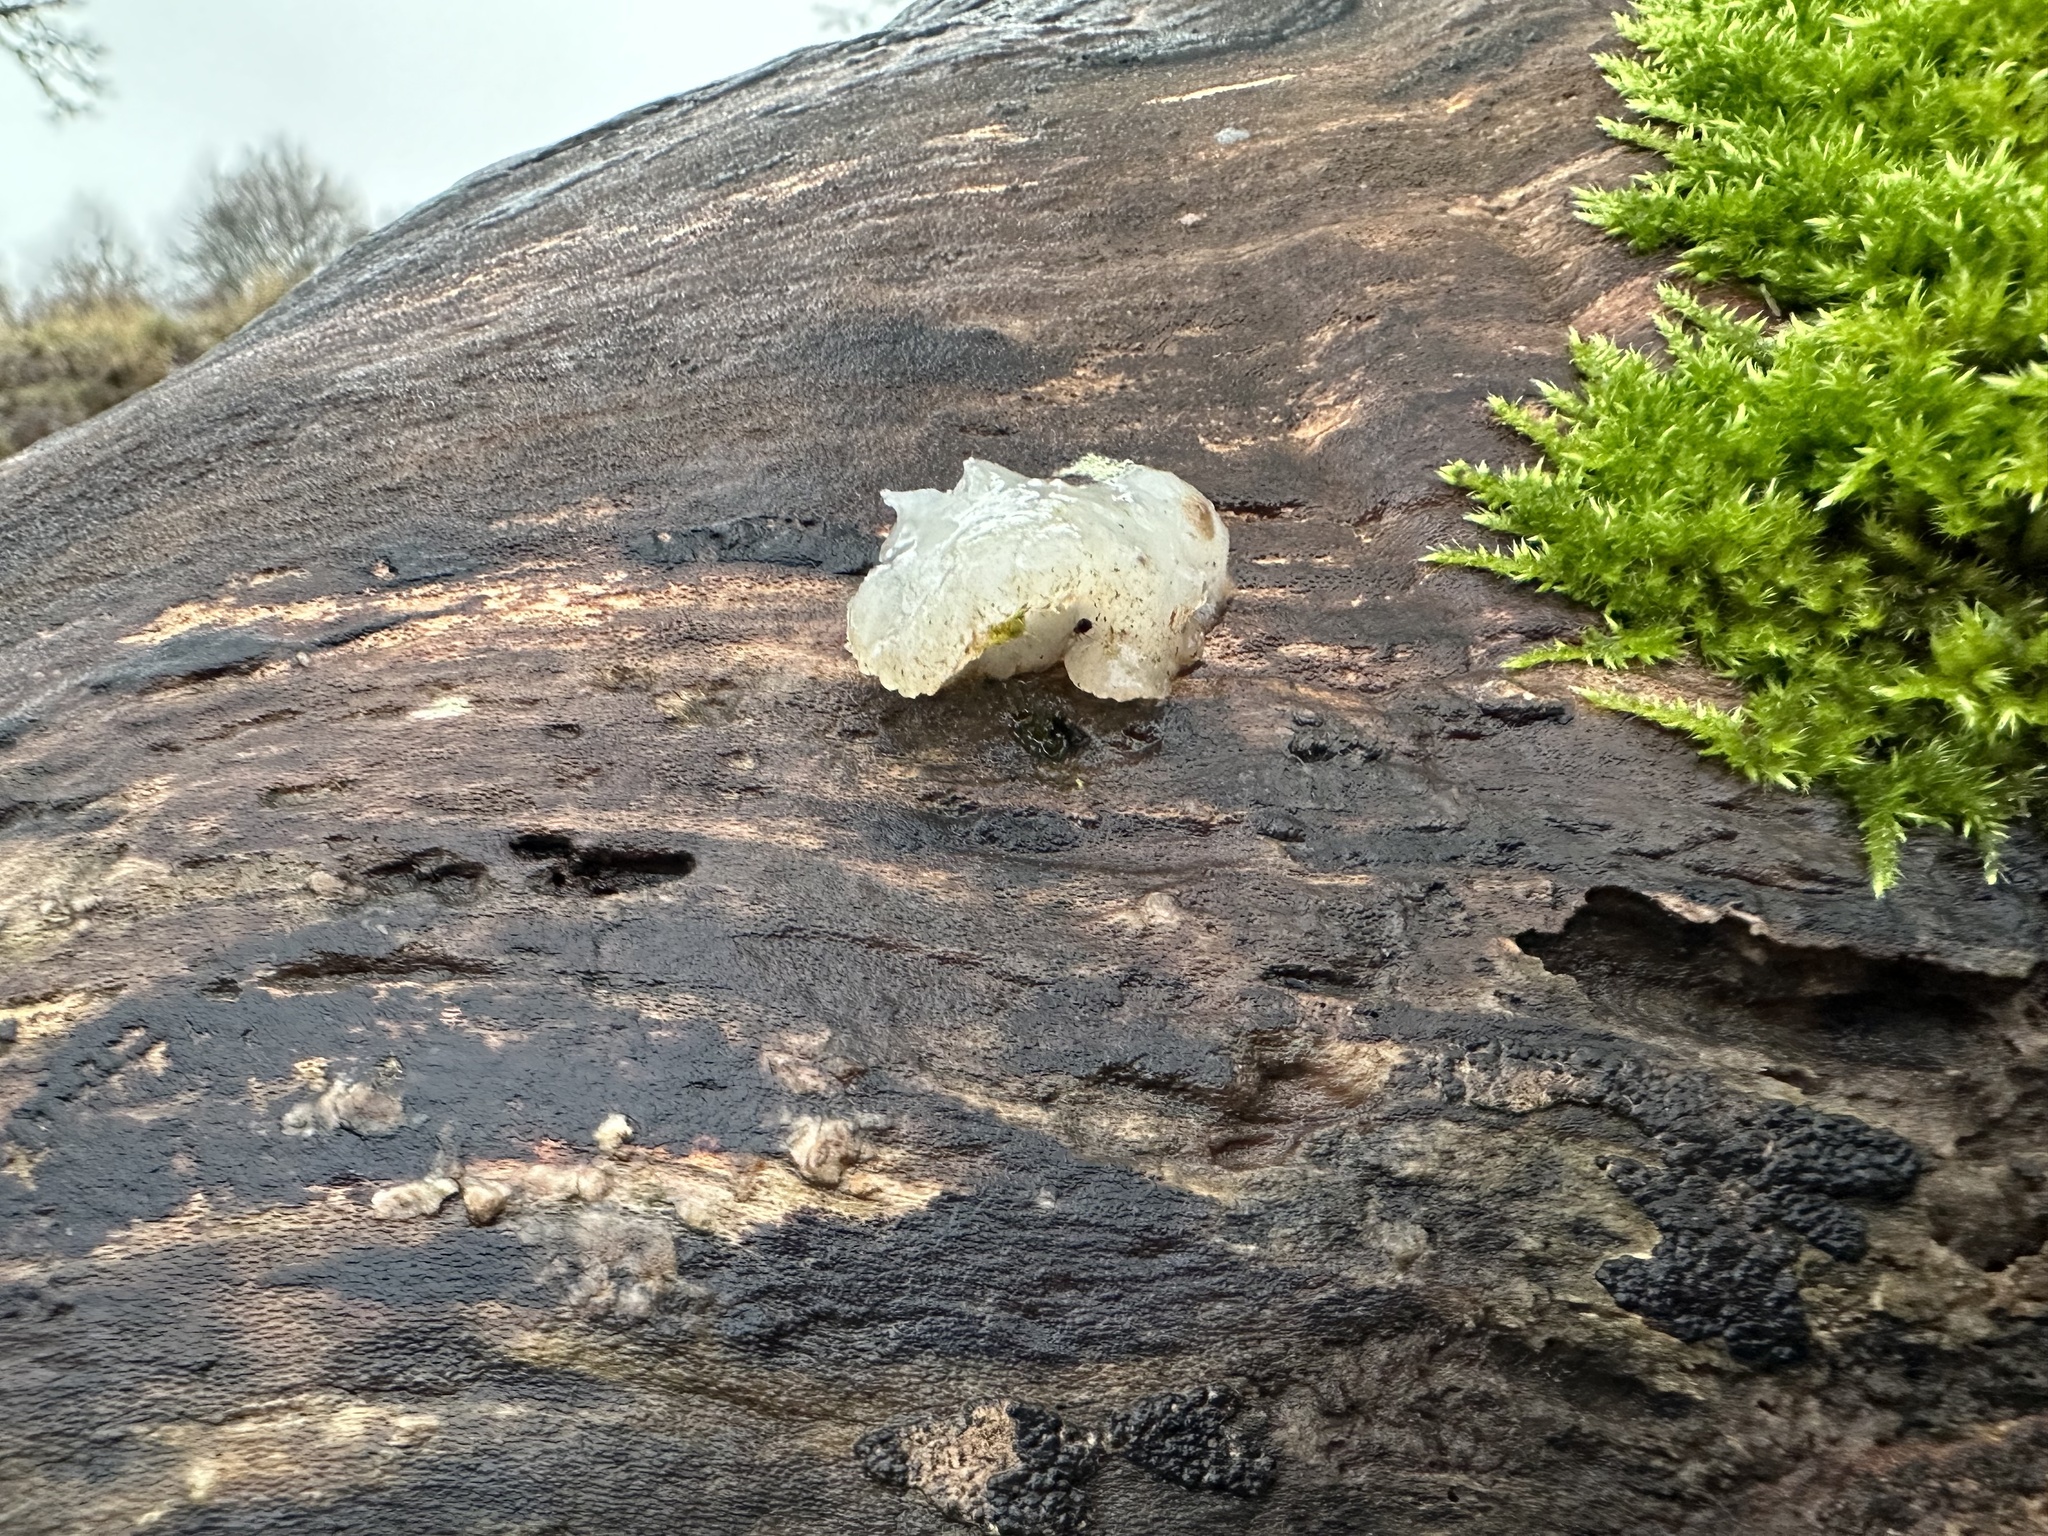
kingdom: Fungi
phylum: Basidiomycota
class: Agaricomycetes
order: Auriculariales
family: Hyaloriaceae
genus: Myxarium
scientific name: Myxarium nucleatum
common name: Crystal brain fungus
